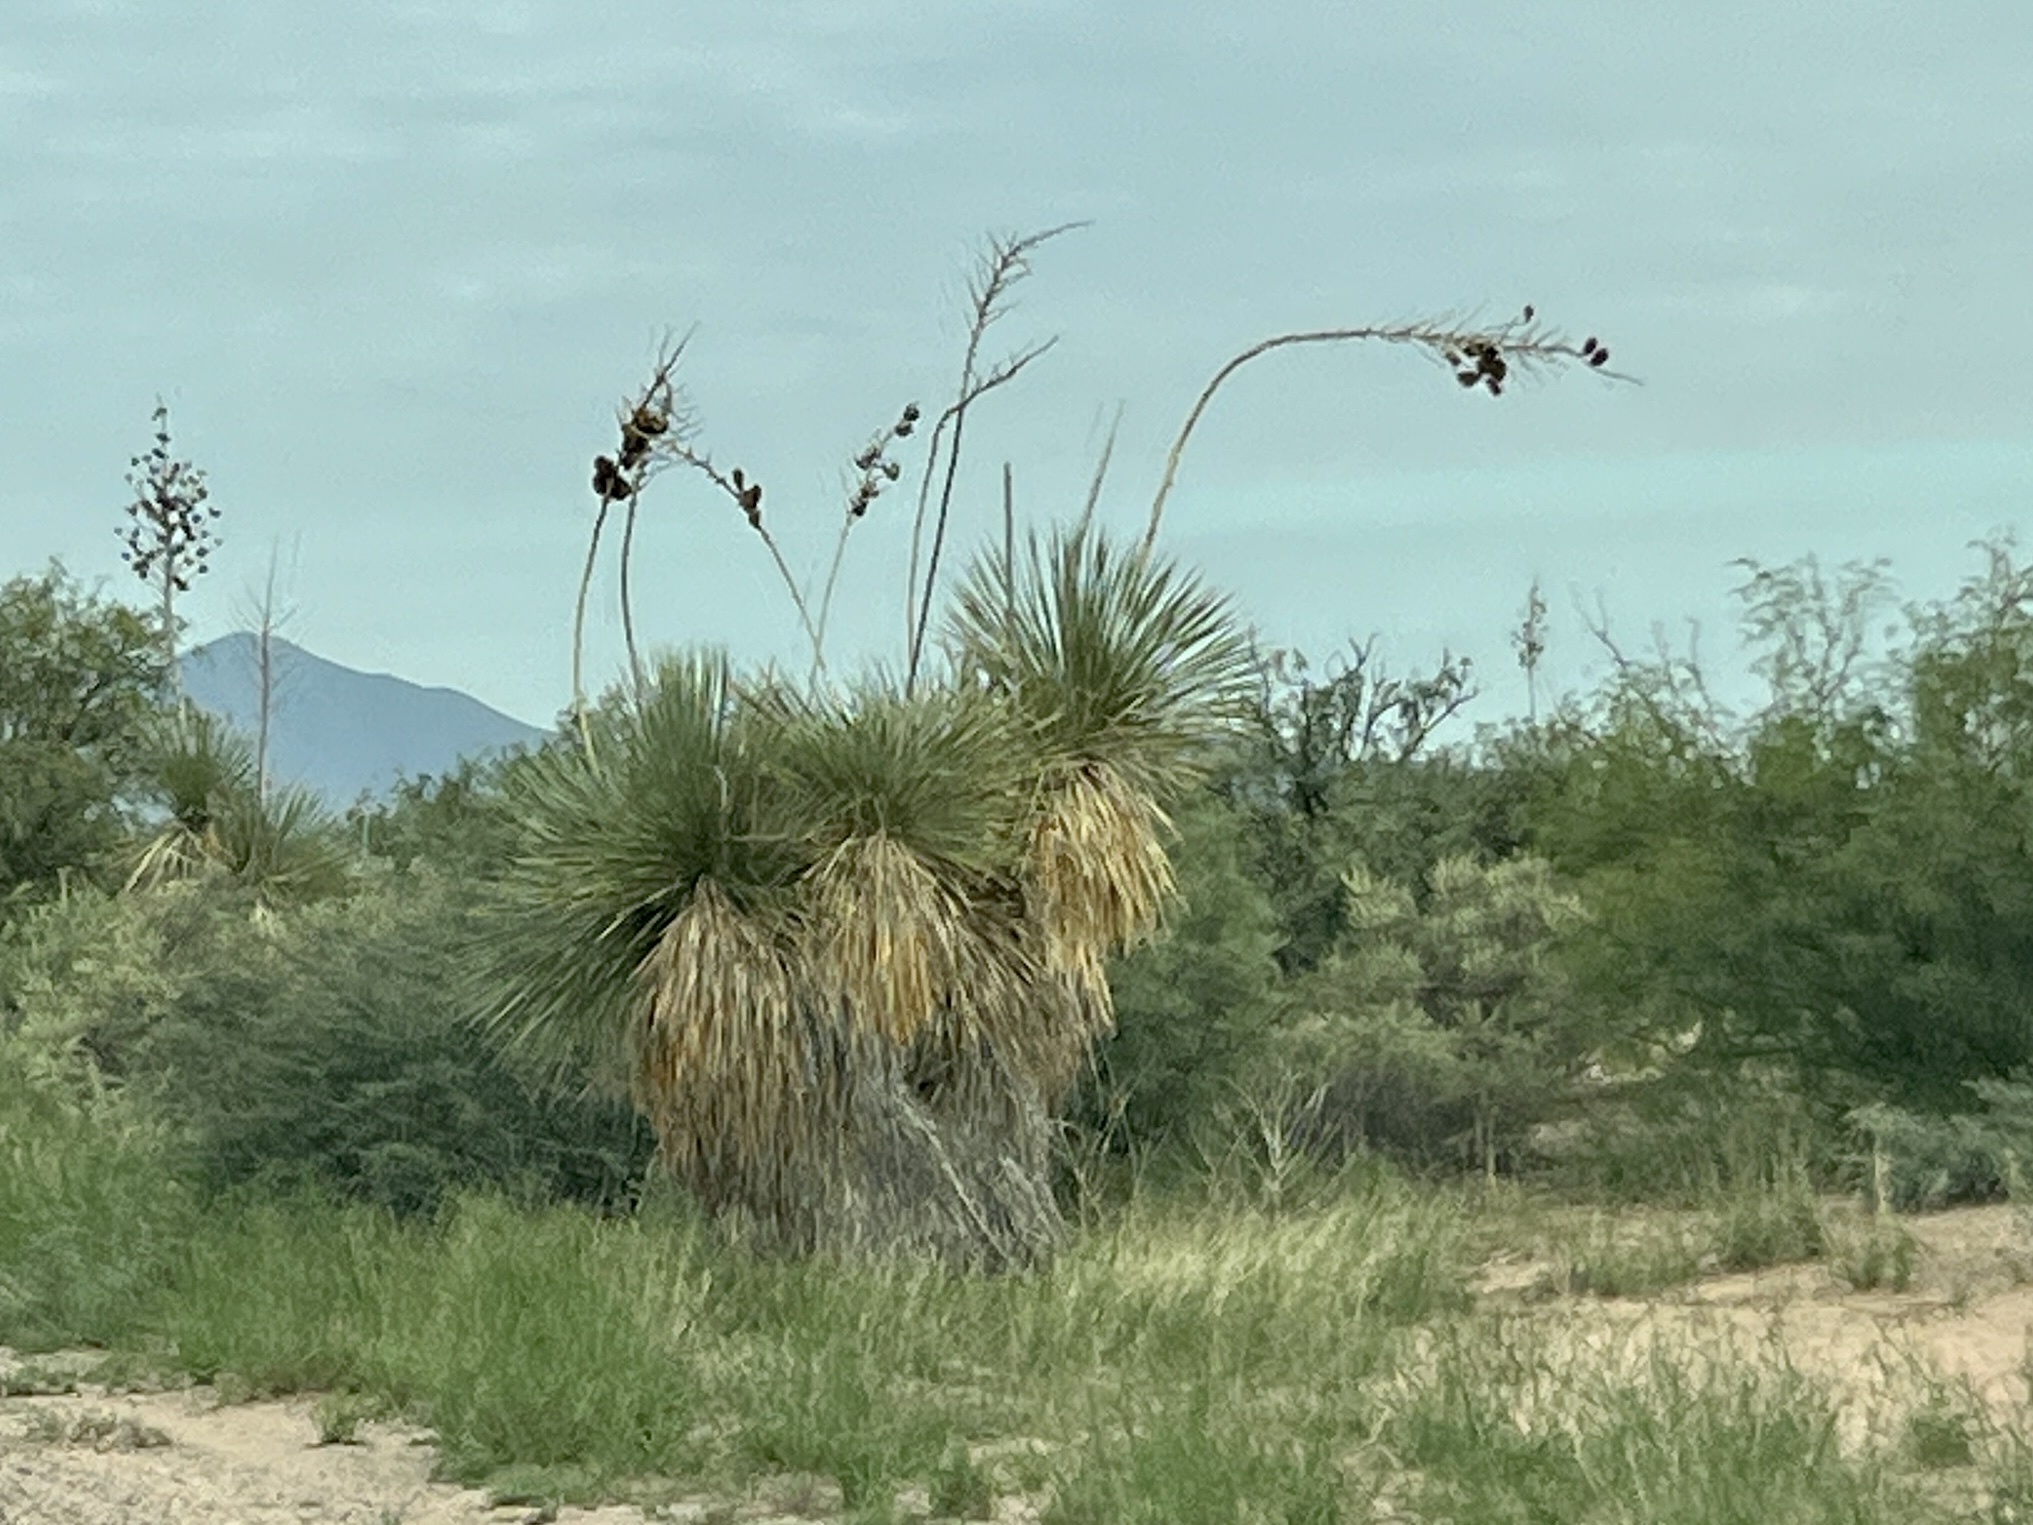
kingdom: Plantae
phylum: Tracheophyta
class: Liliopsida
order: Asparagales
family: Asparagaceae
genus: Yucca
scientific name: Yucca elata
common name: Palmella
